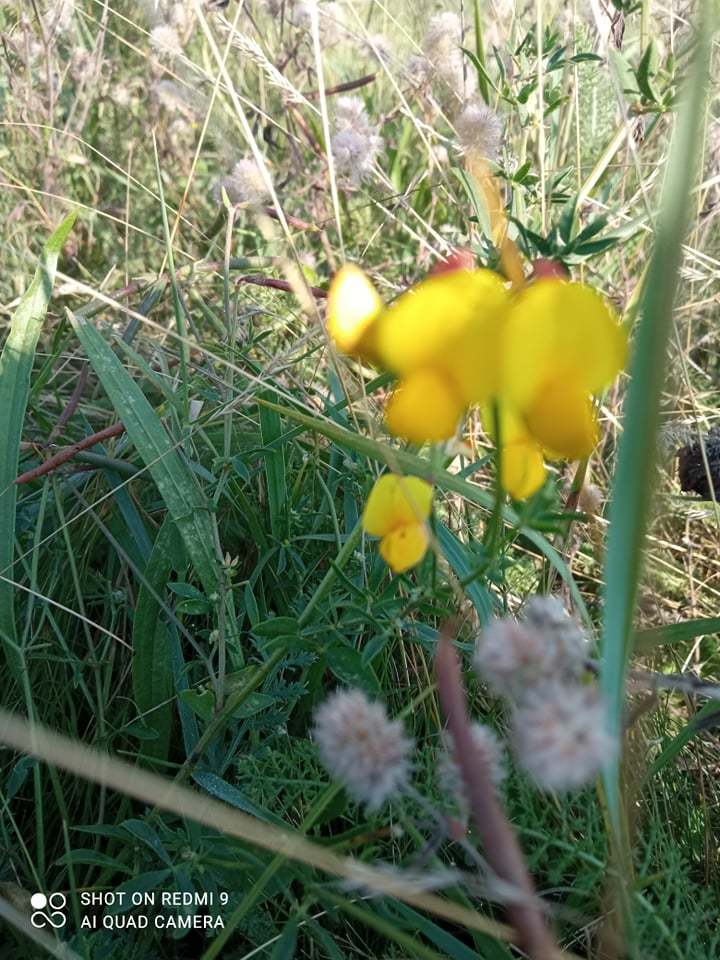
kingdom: Plantae
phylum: Tracheophyta
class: Magnoliopsida
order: Fabales
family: Fabaceae
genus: Lotus
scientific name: Lotus corniculatus
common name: Common bird's-foot-trefoil
